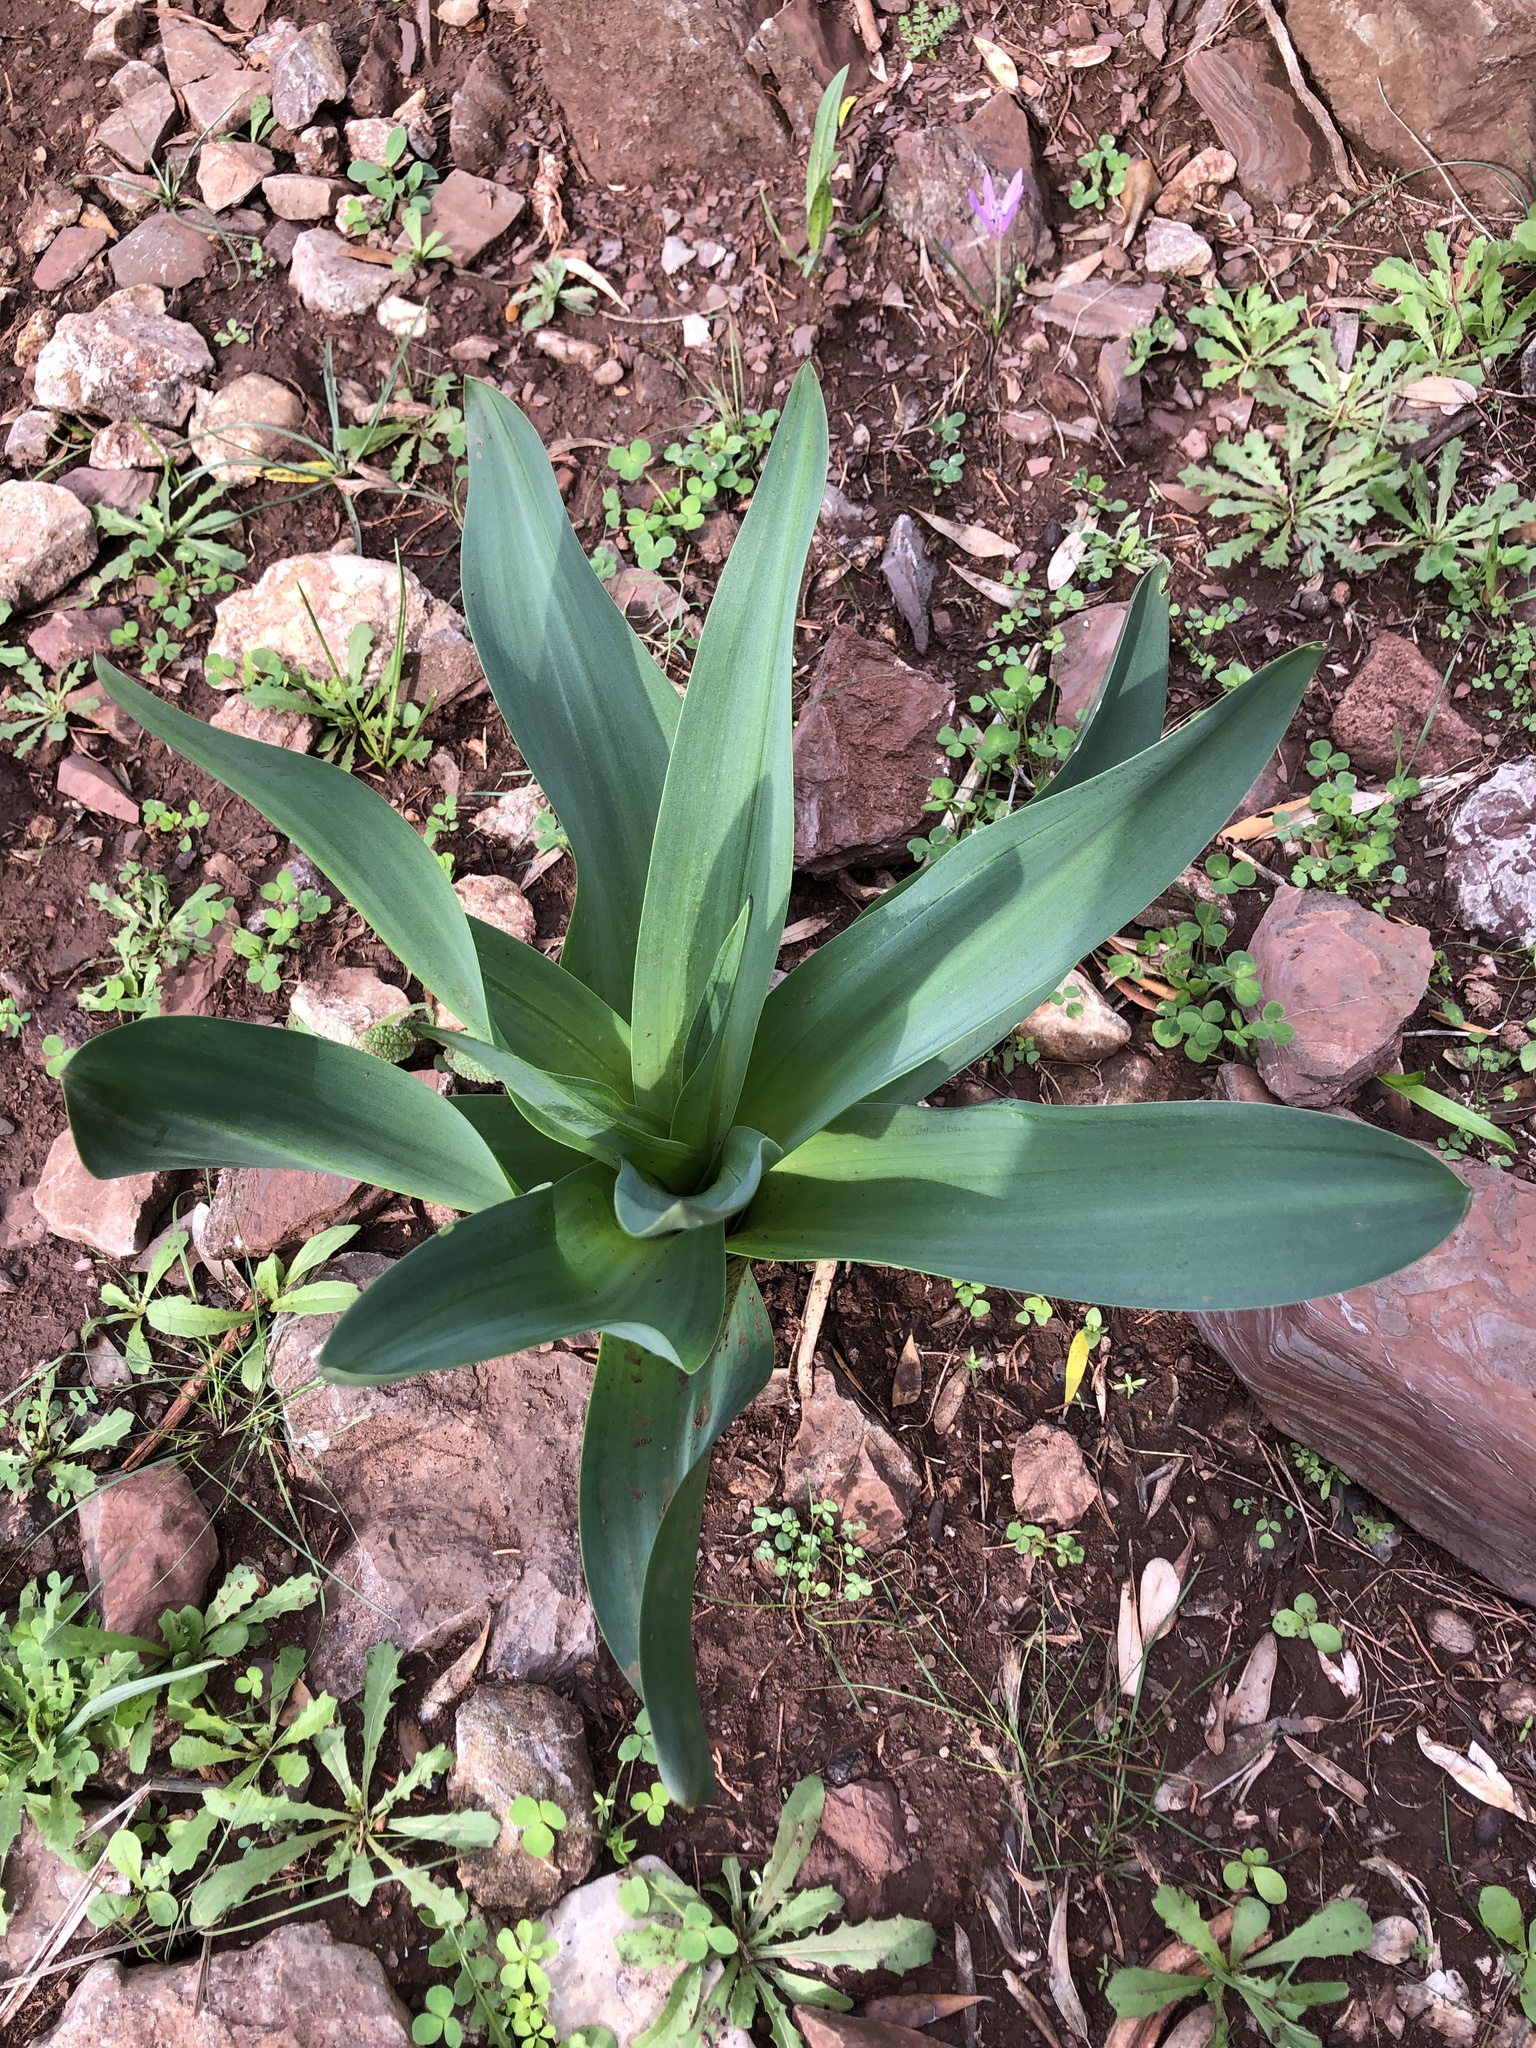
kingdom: Plantae
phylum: Tracheophyta
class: Liliopsida
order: Asparagales
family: Asparagaceae
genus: Drimia
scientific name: Drimia numidica
